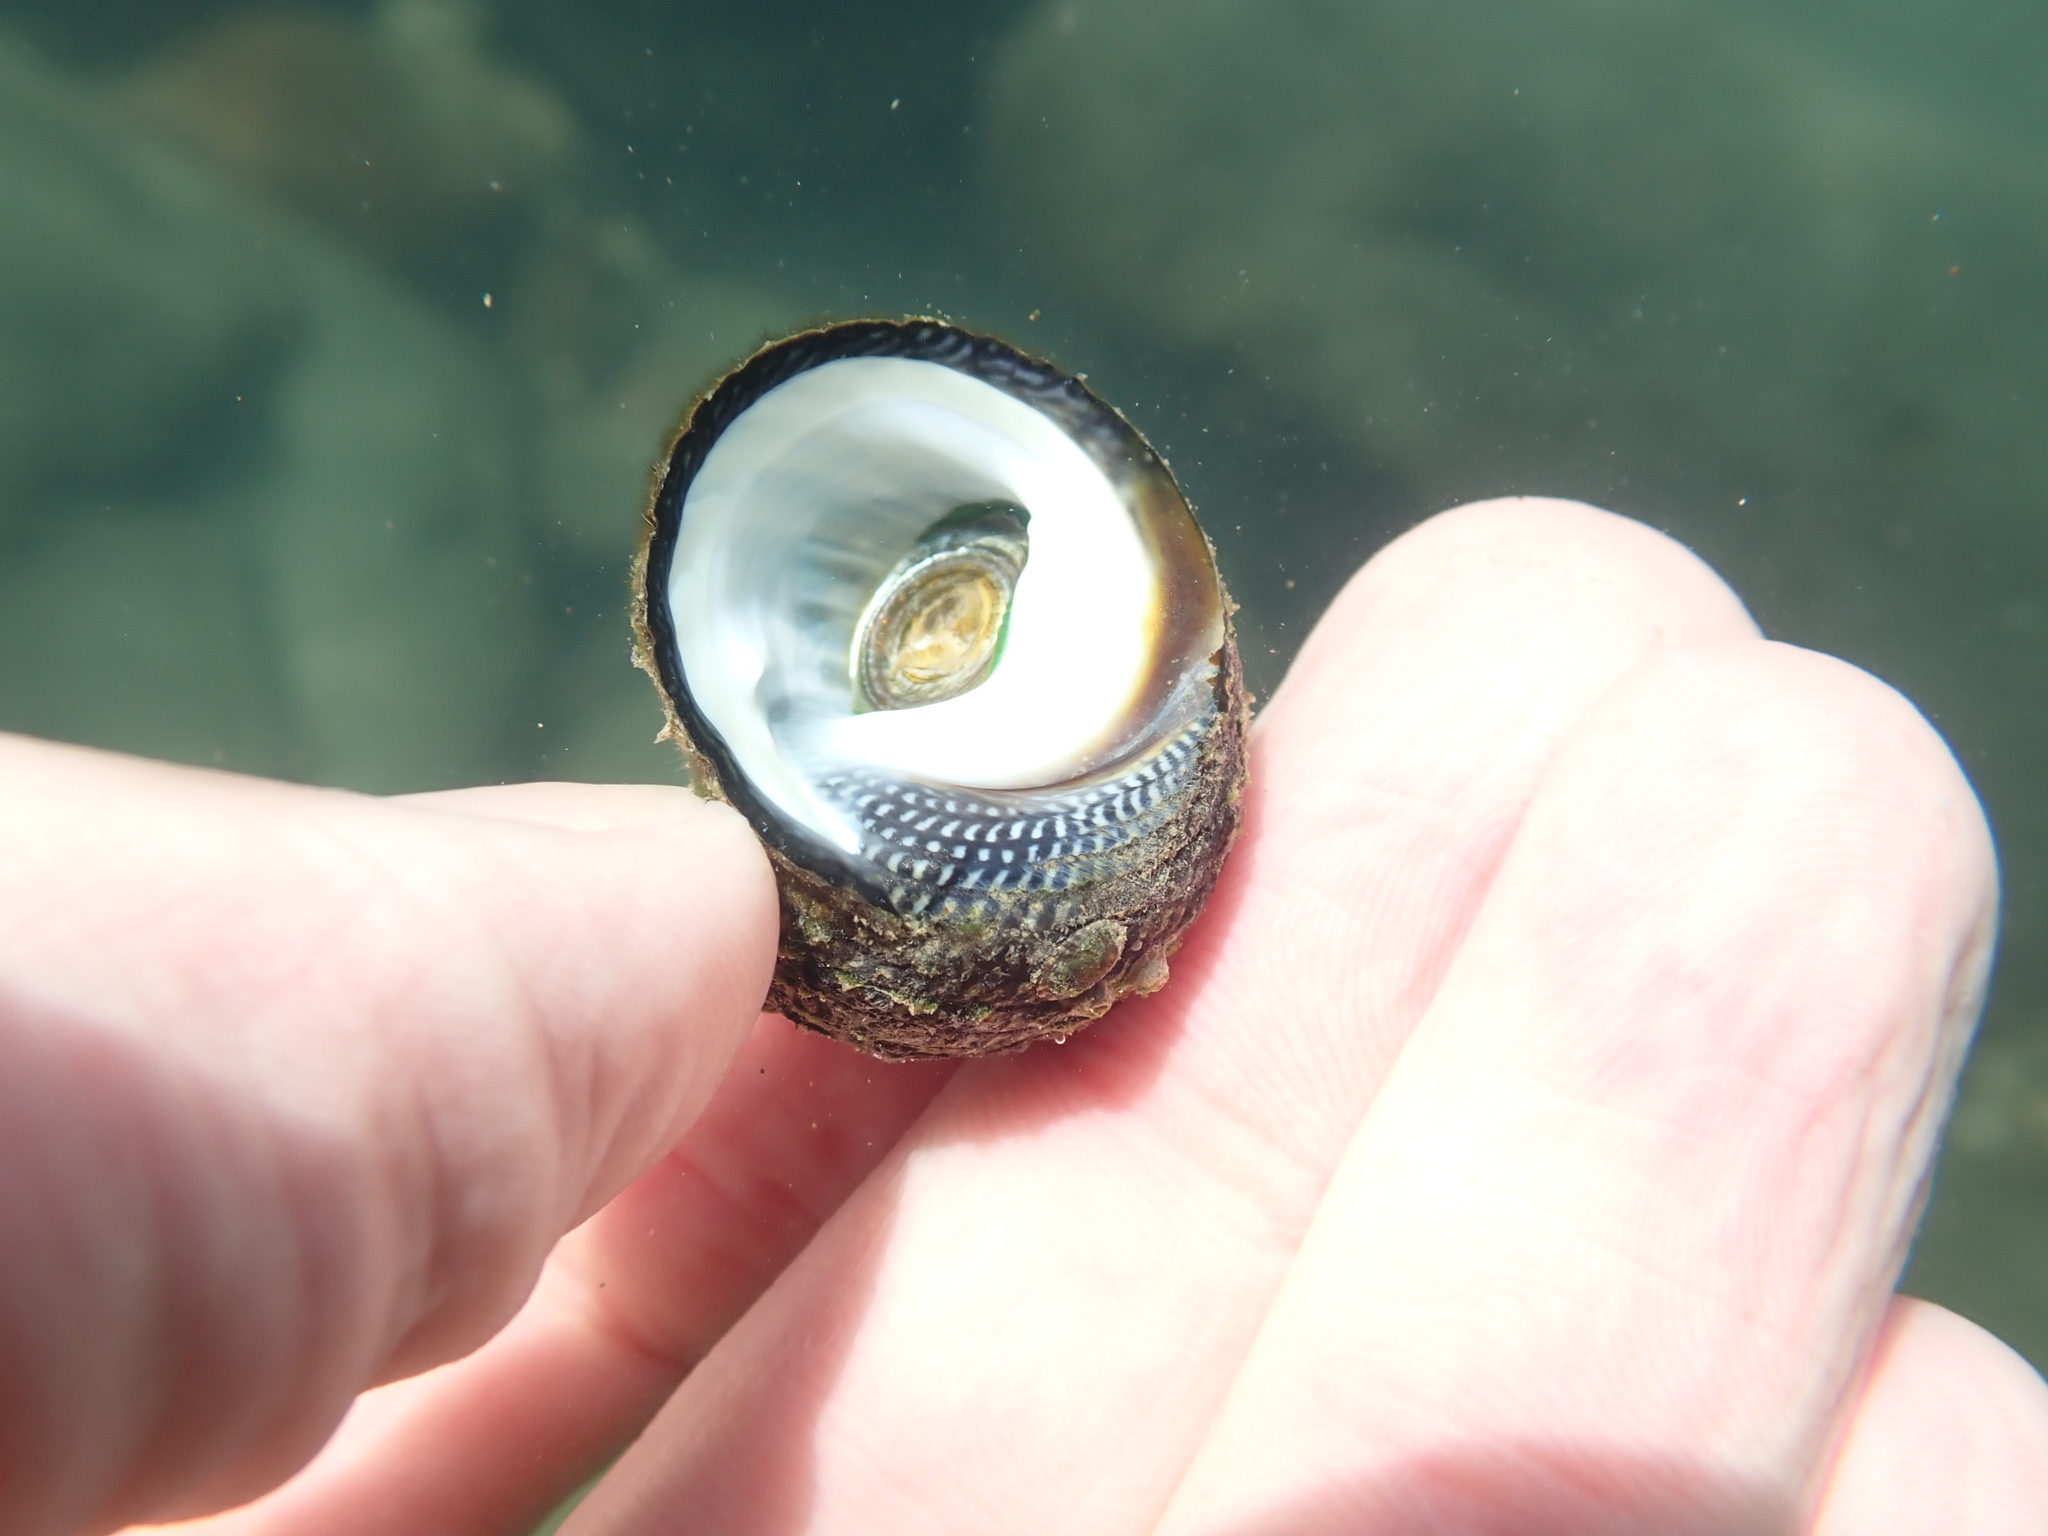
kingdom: Animalia
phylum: Mollusca
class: Gastropoda
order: Trochida
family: Trochidae
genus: Diloma
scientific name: Diloma aethiops
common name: Scorched monodont
